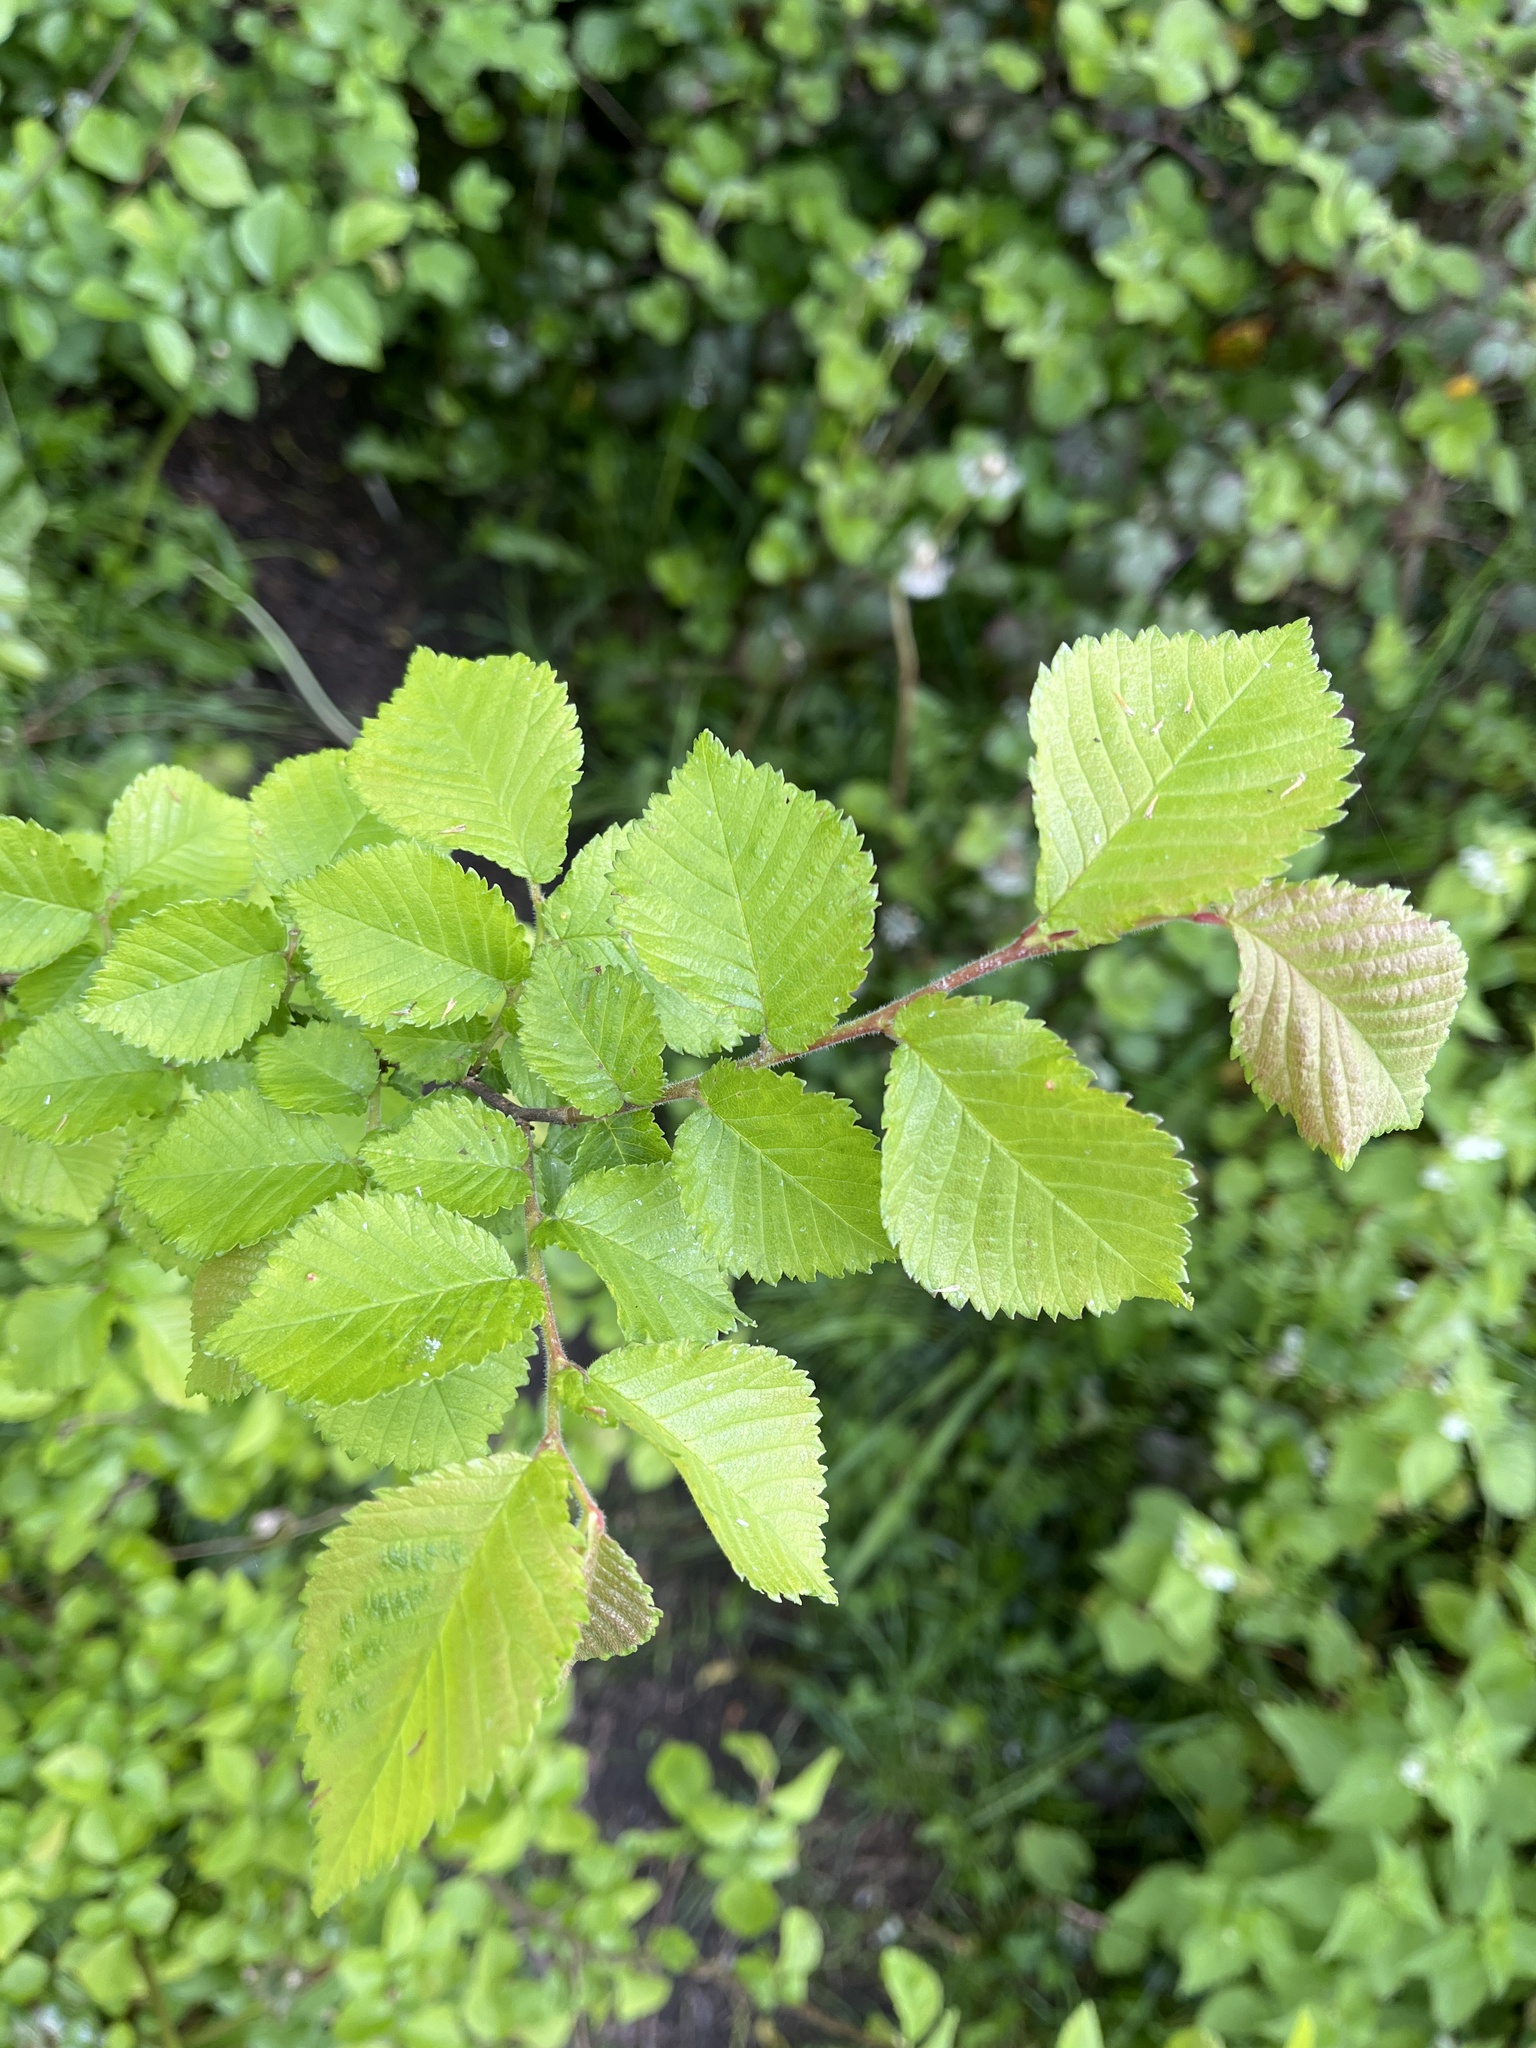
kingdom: Plantae
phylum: Tracheophyta
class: Magnoliopsida
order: Rosales
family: Ulmaceae
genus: Ulmus
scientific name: Ulmus minor
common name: Small-leaved elm
